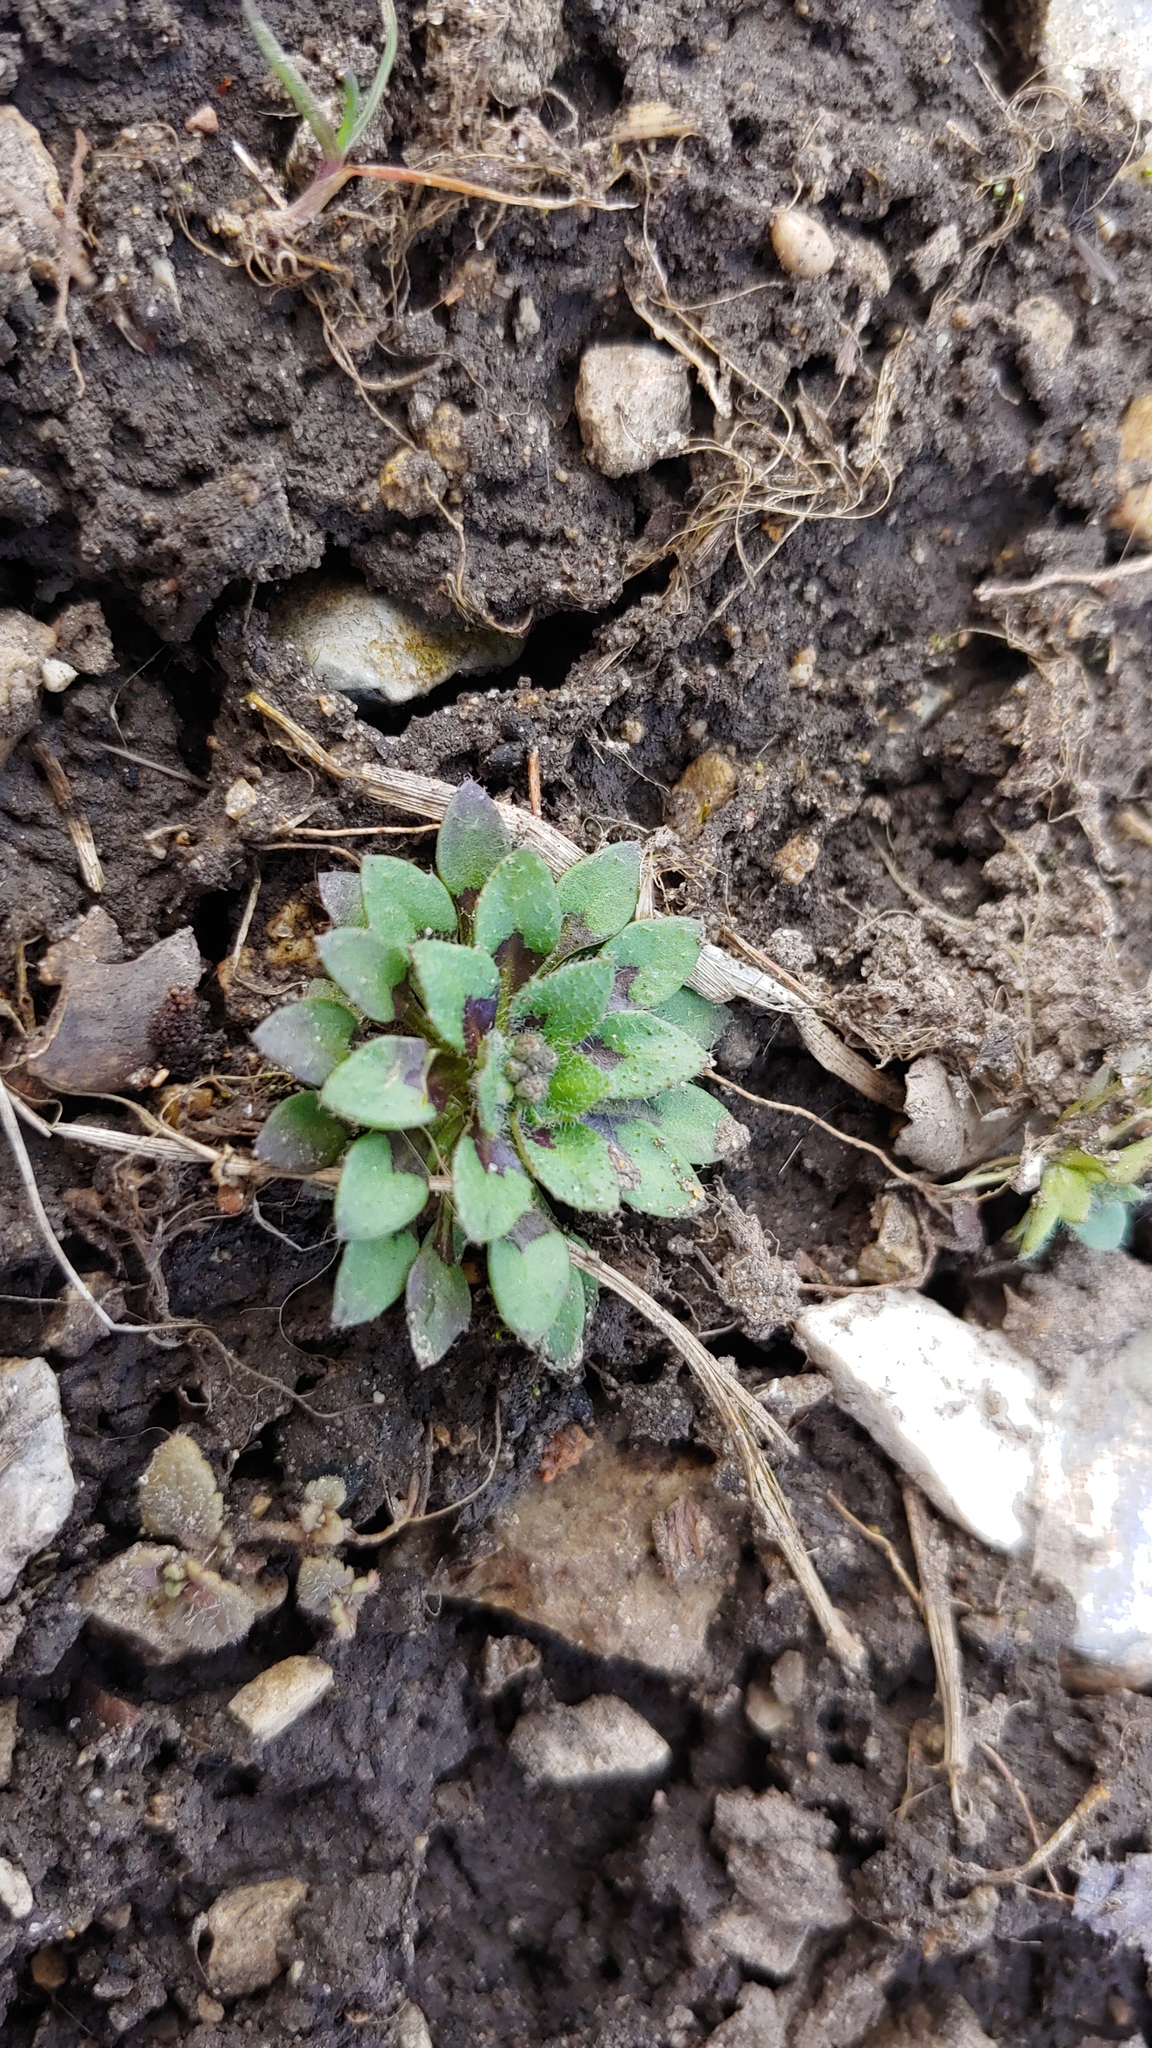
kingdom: Plantae
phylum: Tracheophyta
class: Magnoliopsida
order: Brassicales
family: Brassicaceae
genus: Draba
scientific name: Draba verna
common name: Spring draba
